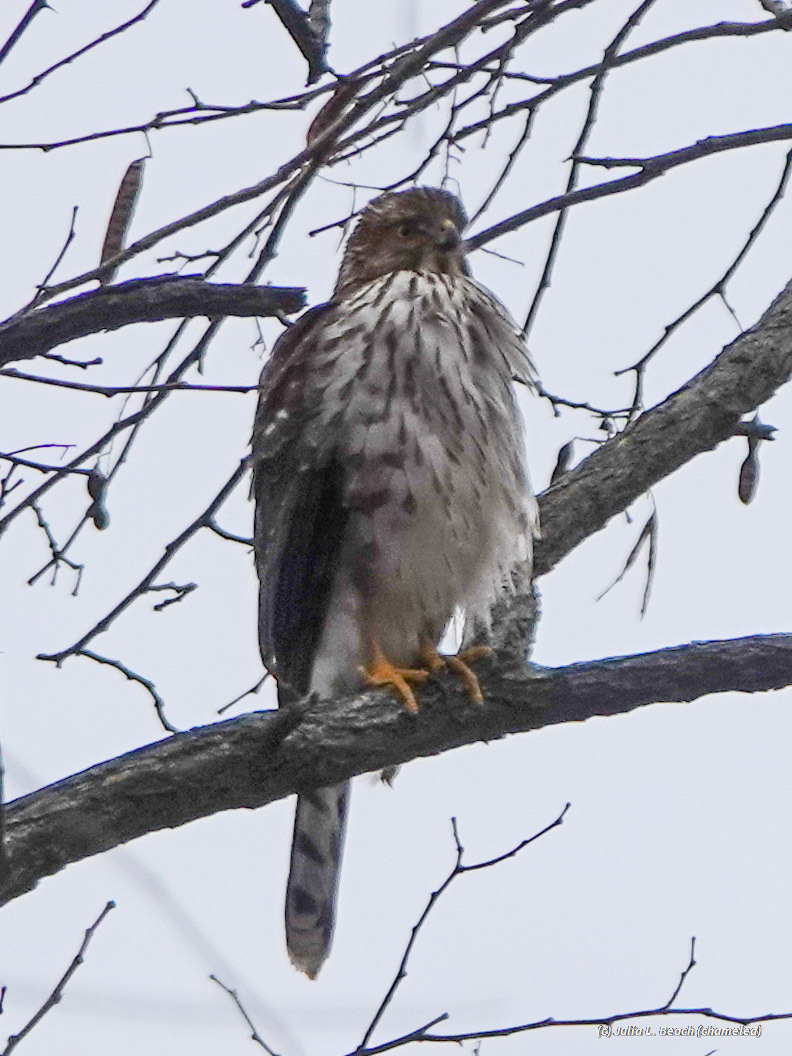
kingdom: Animalia
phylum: Chordata
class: Aves
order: Accipitriformes
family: Accipitridae
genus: Accipiter
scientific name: Accipiter cooperii
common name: Cooper's hawk
